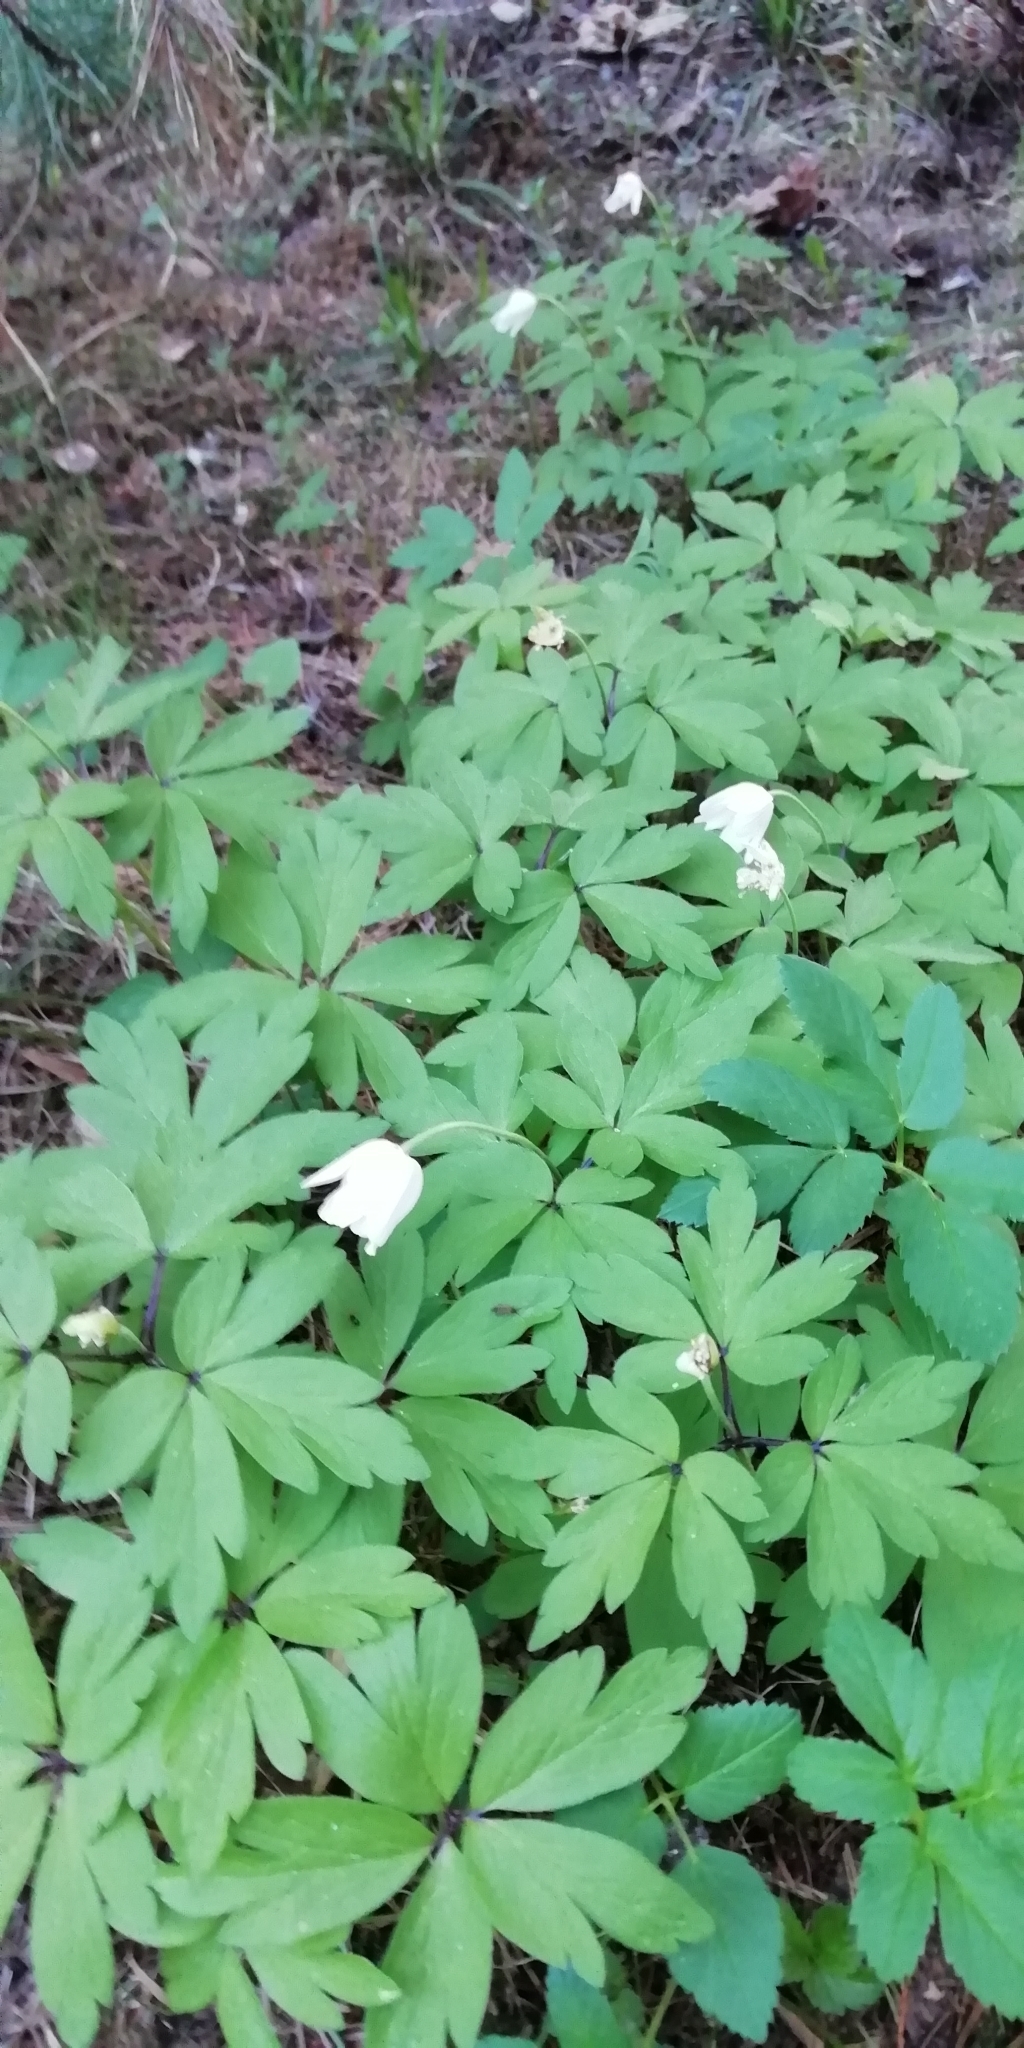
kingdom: Plantae
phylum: Tracheophyta
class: Magnoliopsida
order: Ranunculales
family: Ranunculaceae
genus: Anemone
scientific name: Anemone nemorosa
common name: Wood anemone
